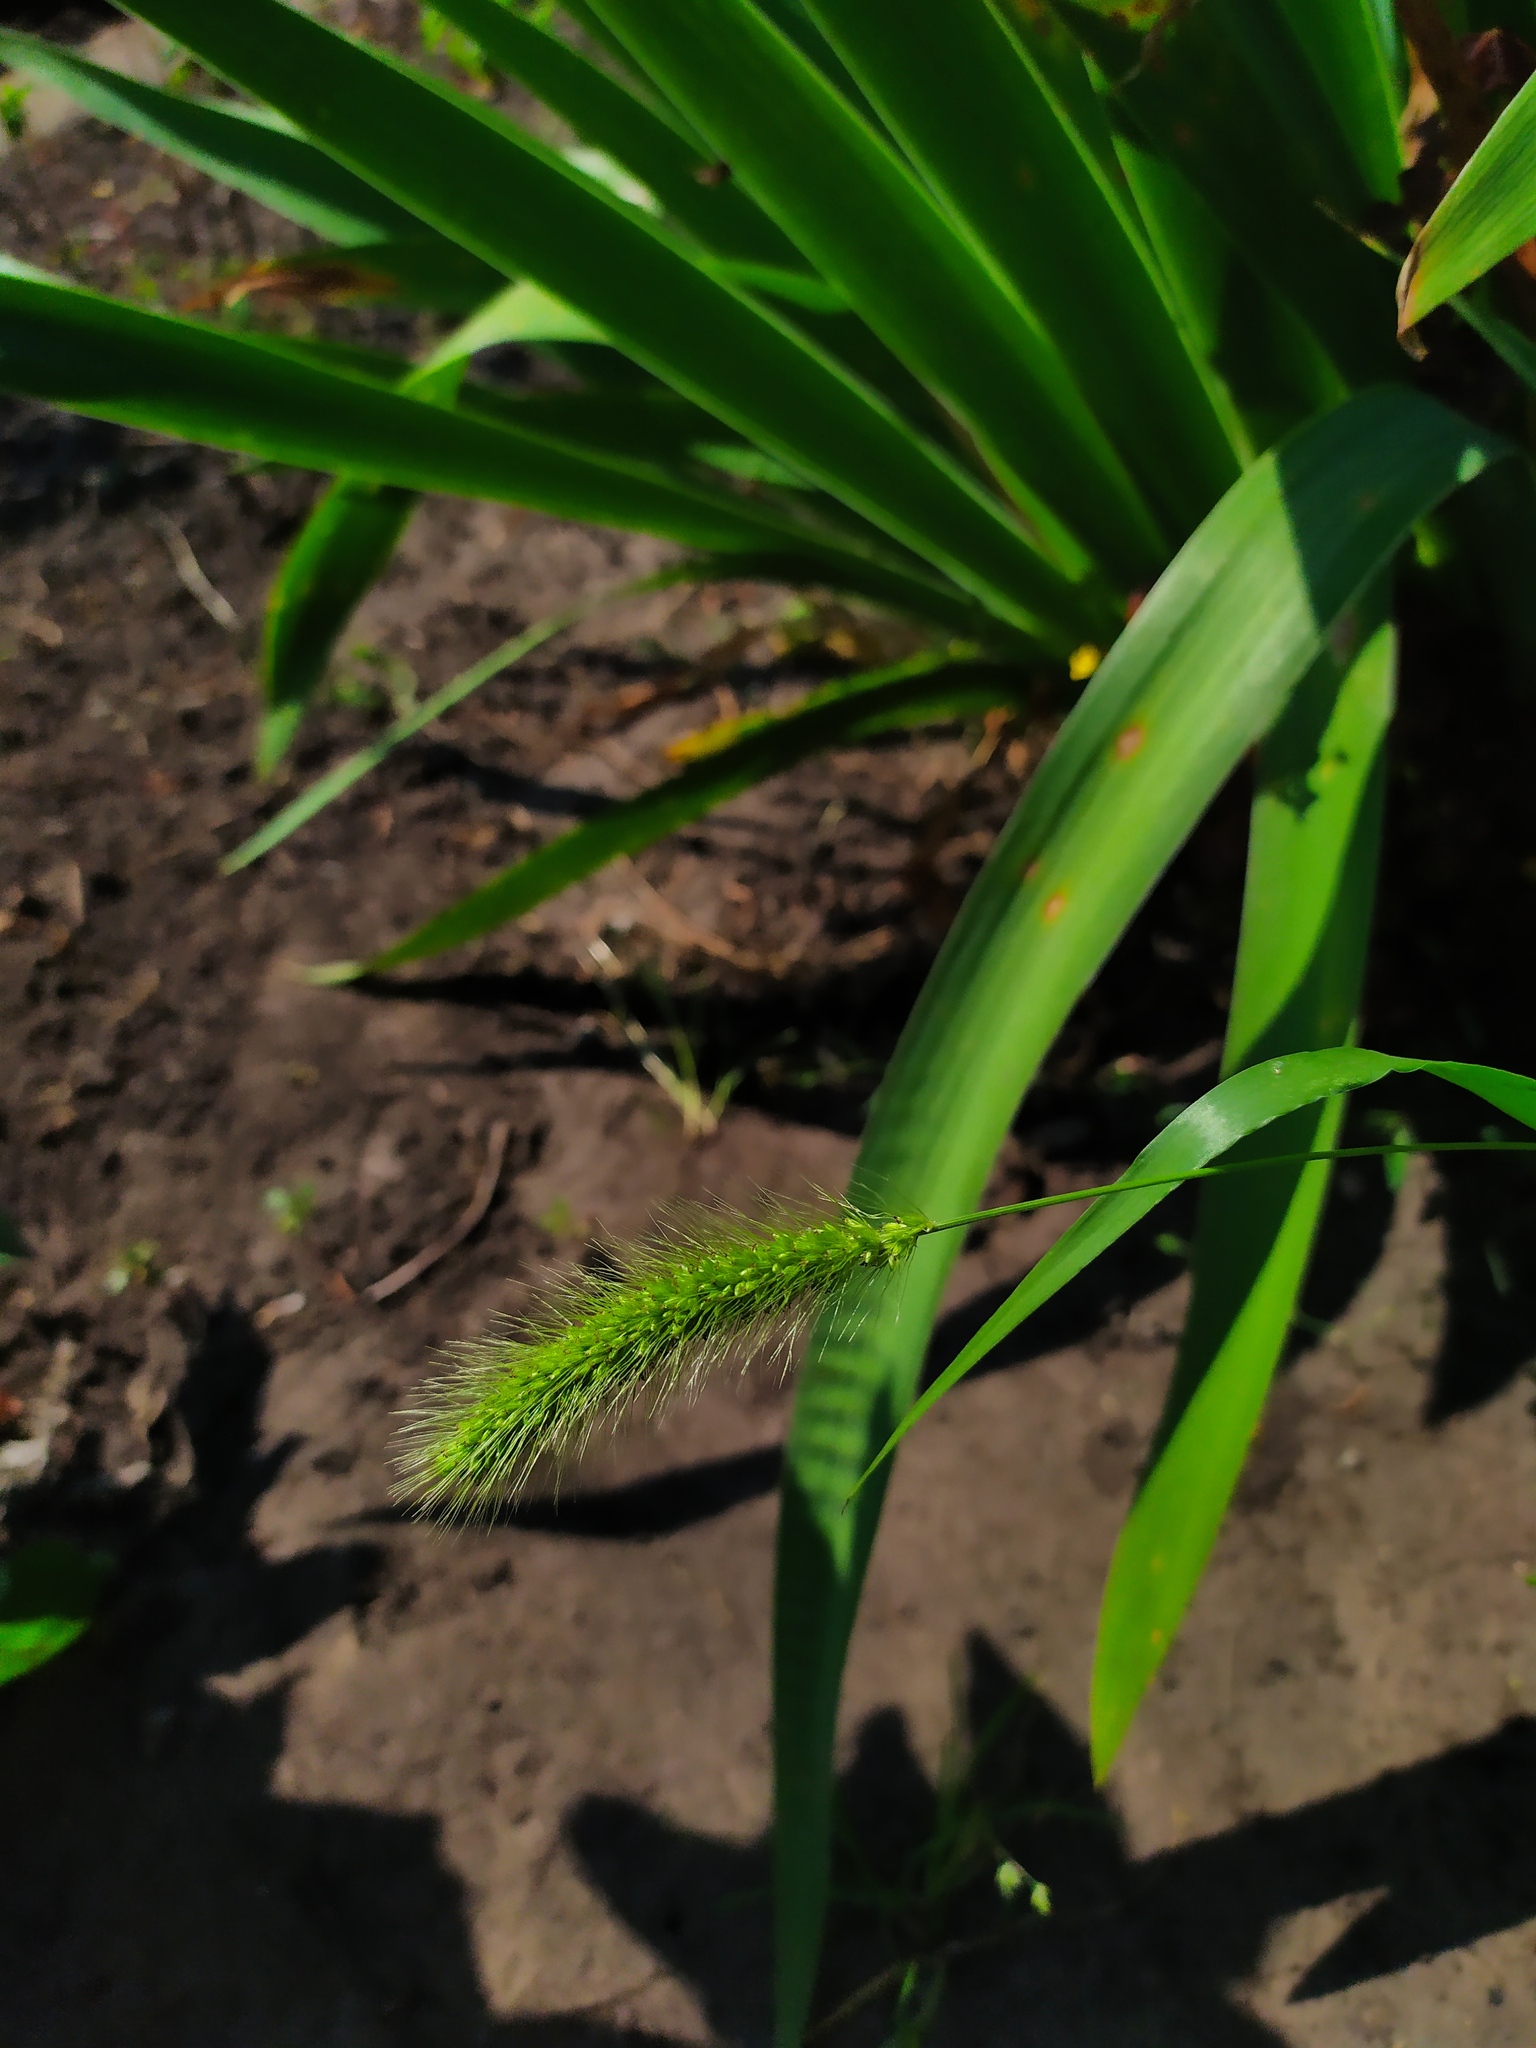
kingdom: Plantae
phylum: Tracheophyta
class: Liliopsida
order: Poales
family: Poaceae
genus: Setaria
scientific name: Setaria viridis
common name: Green bristlegrass
